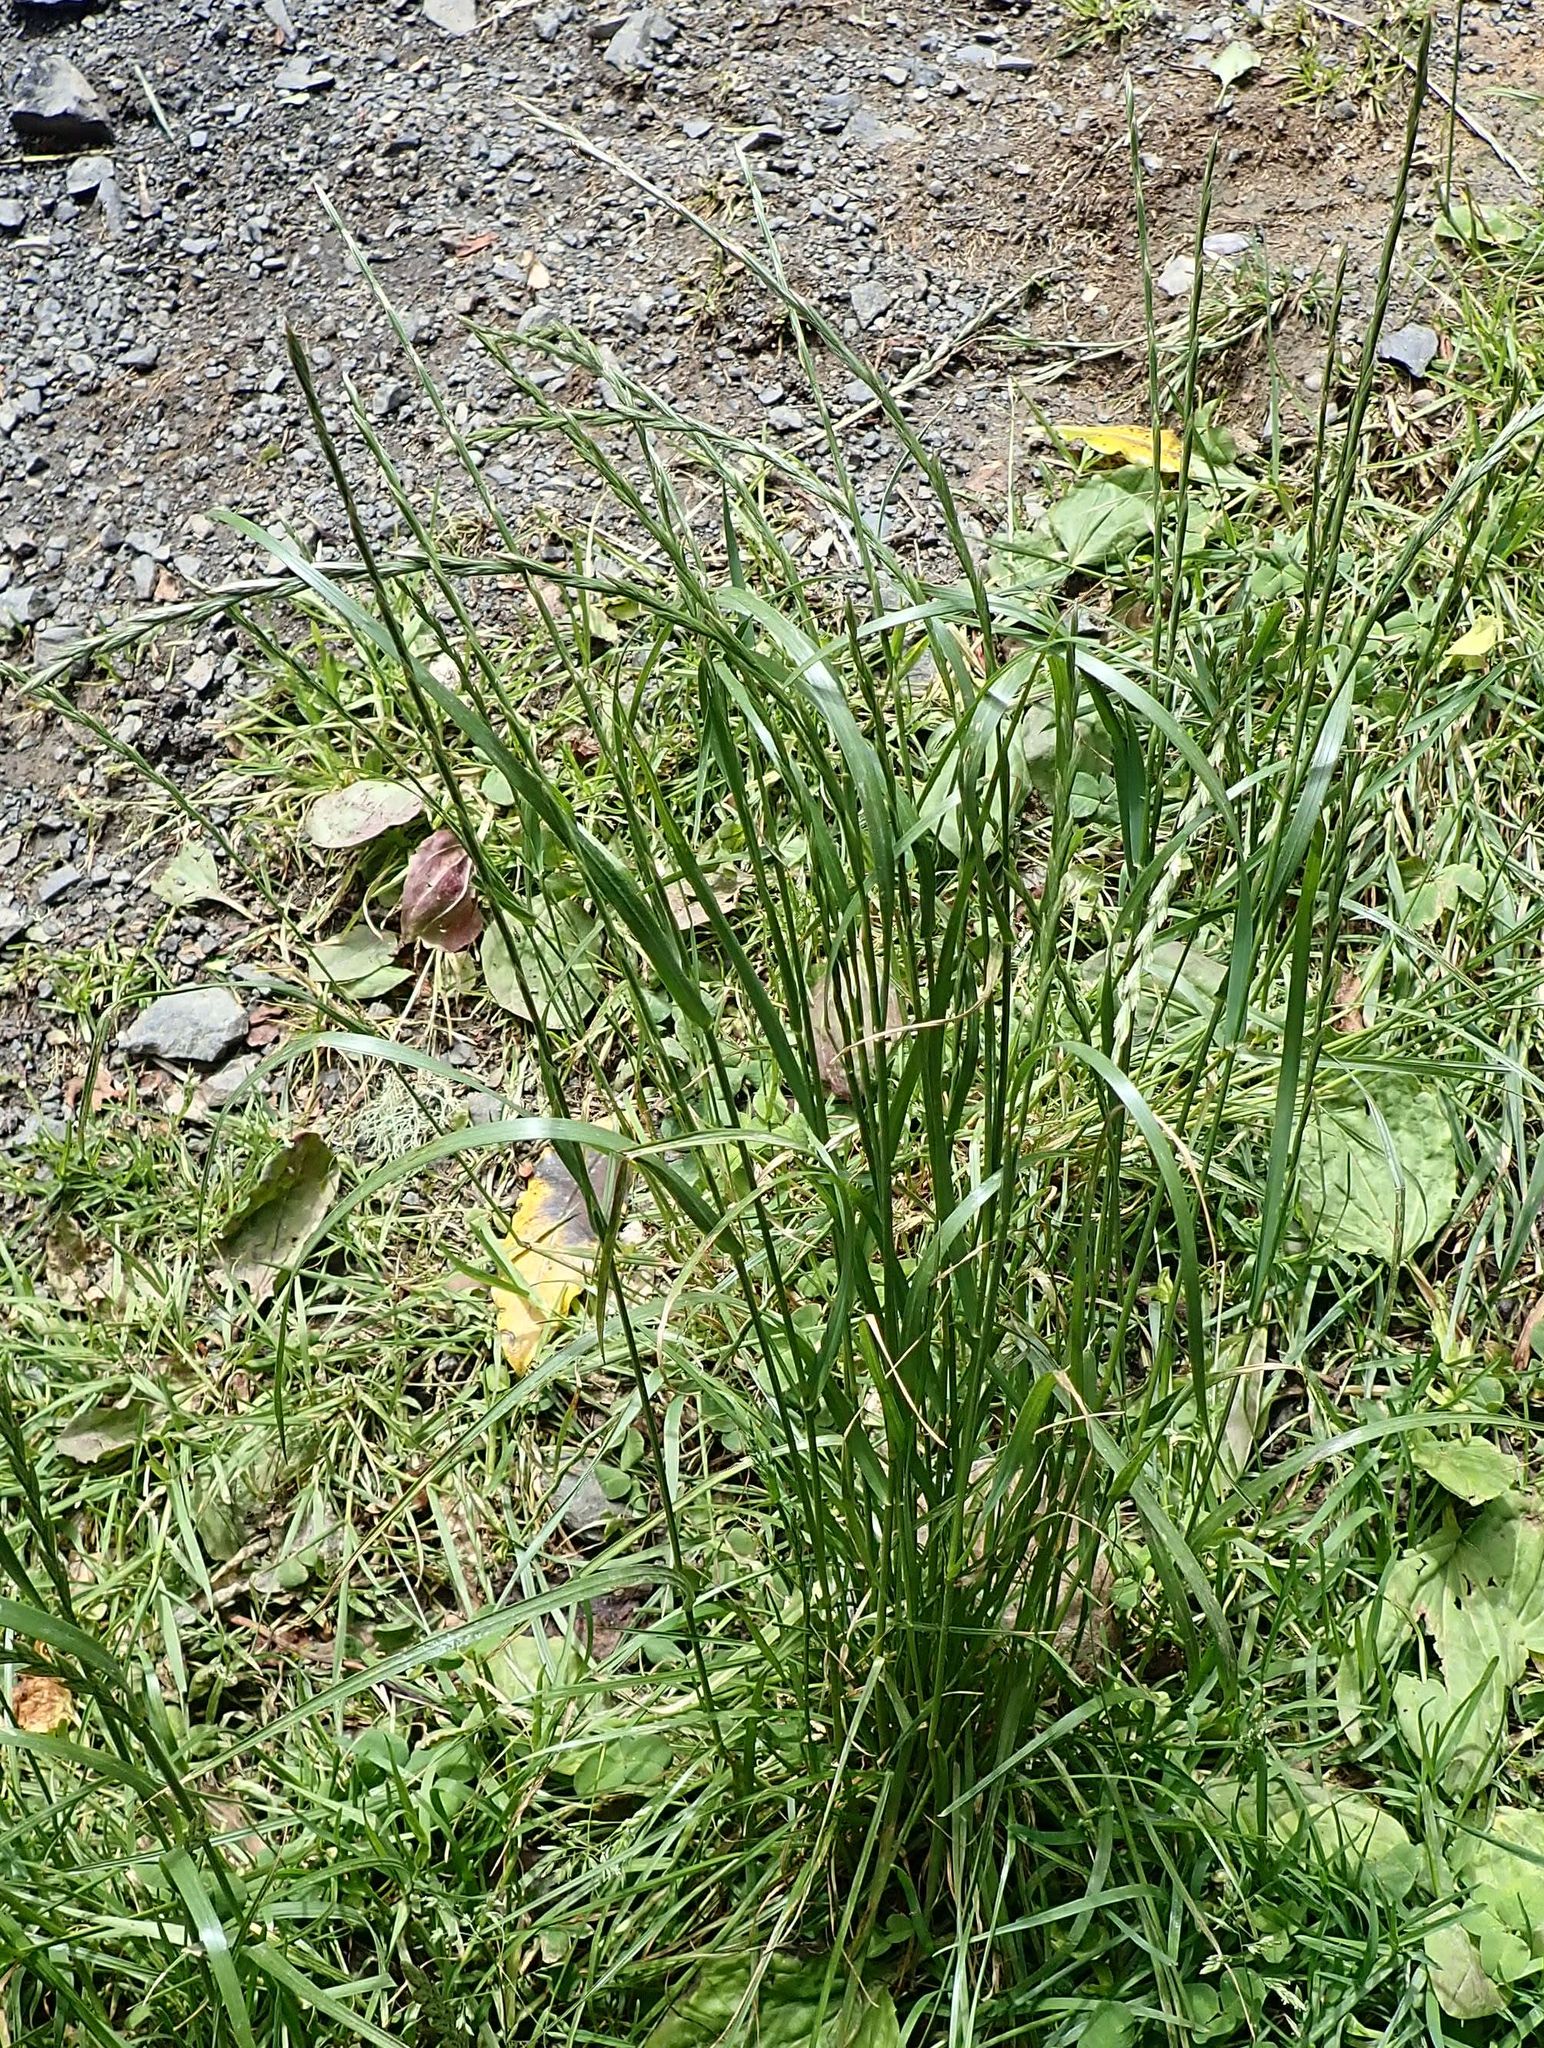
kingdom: Plantae
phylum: Tracheophyta
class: Liliopsida
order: Poales
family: Poaceae
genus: Lolium
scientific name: Lolium perenne
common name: Perennial ryegrass
